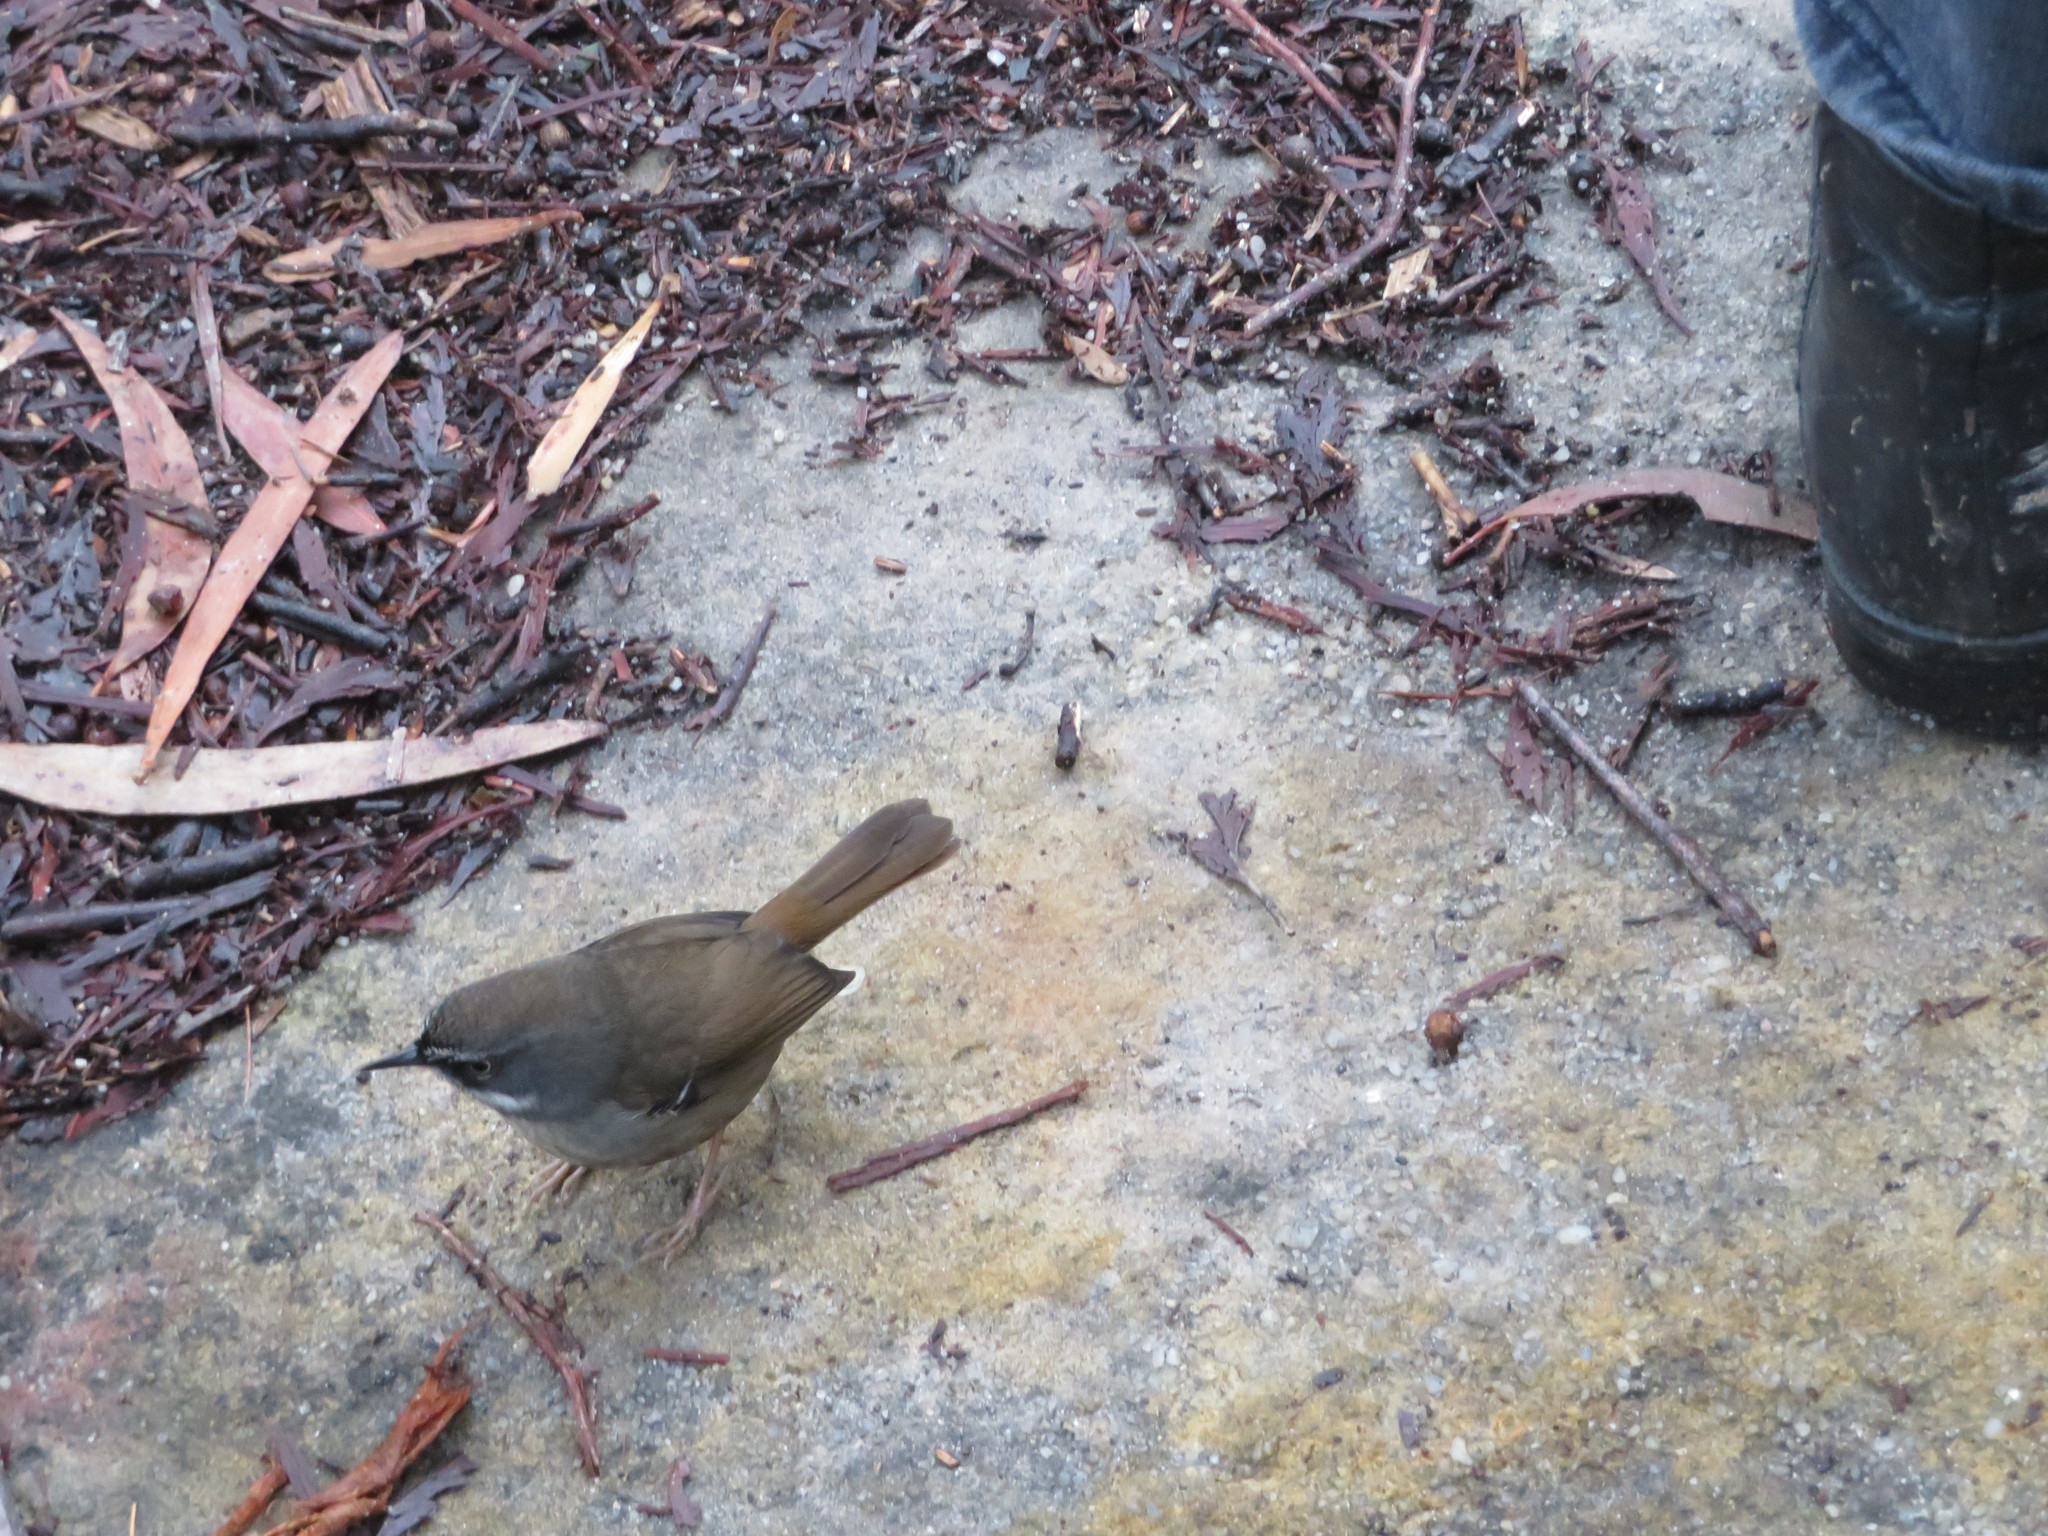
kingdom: Animalia
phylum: Chordata
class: Aves
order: Passeriformes
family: Acanthizidae
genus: Sericornis
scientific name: Sericornis frontalis
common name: White-browed scrubwren
